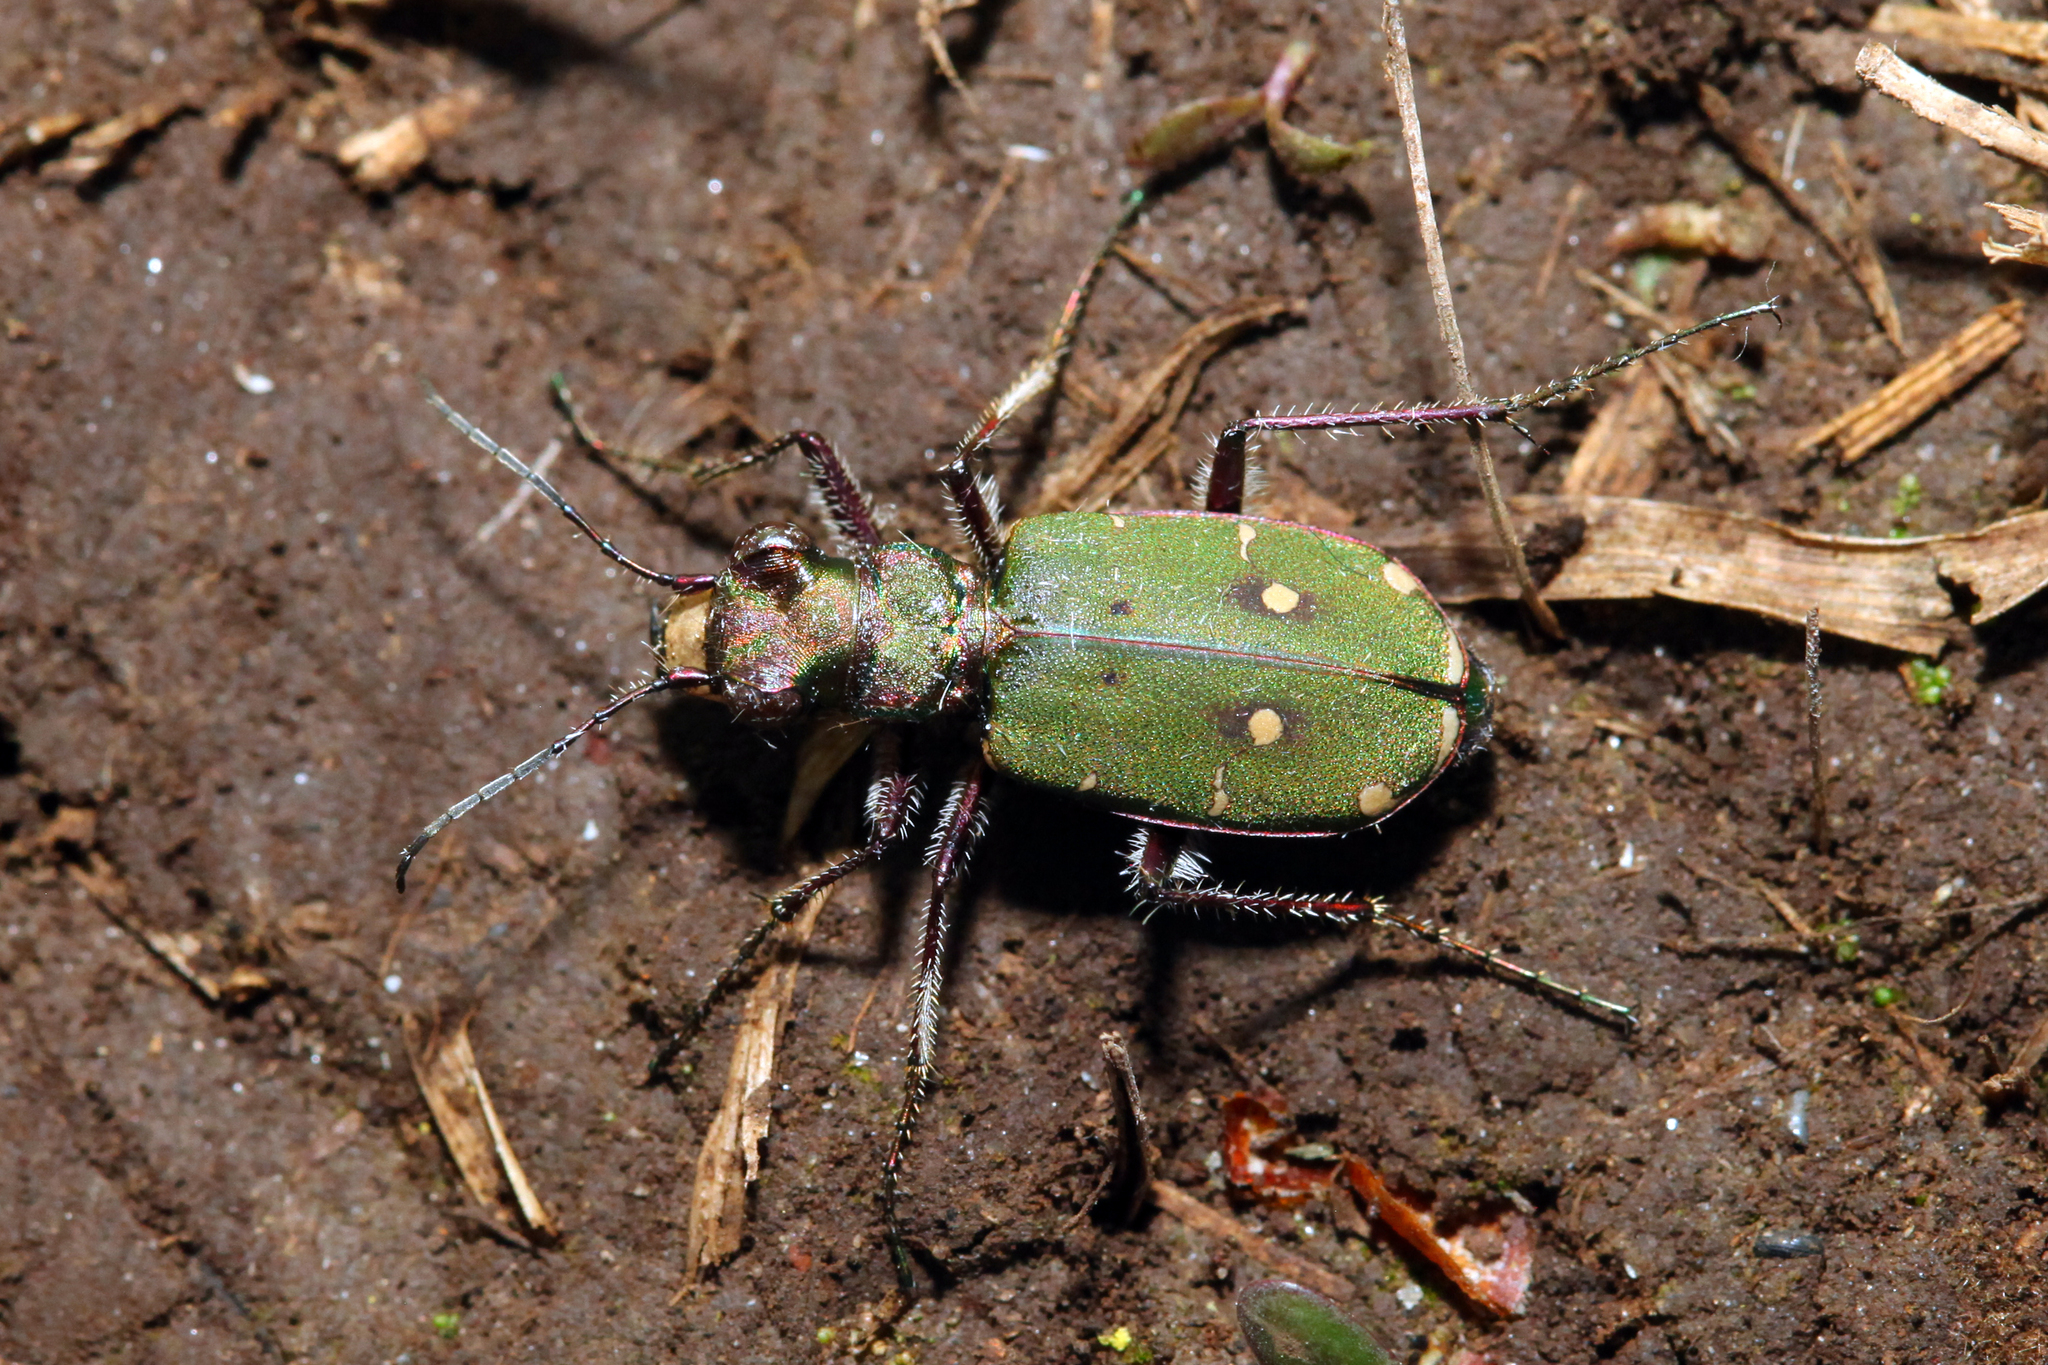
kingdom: Animalia
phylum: Arthropoda
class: Insecta
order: Coleoptera
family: Carabidae
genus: Cicindela
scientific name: Cicindela campestris
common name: Common tiger beetle
